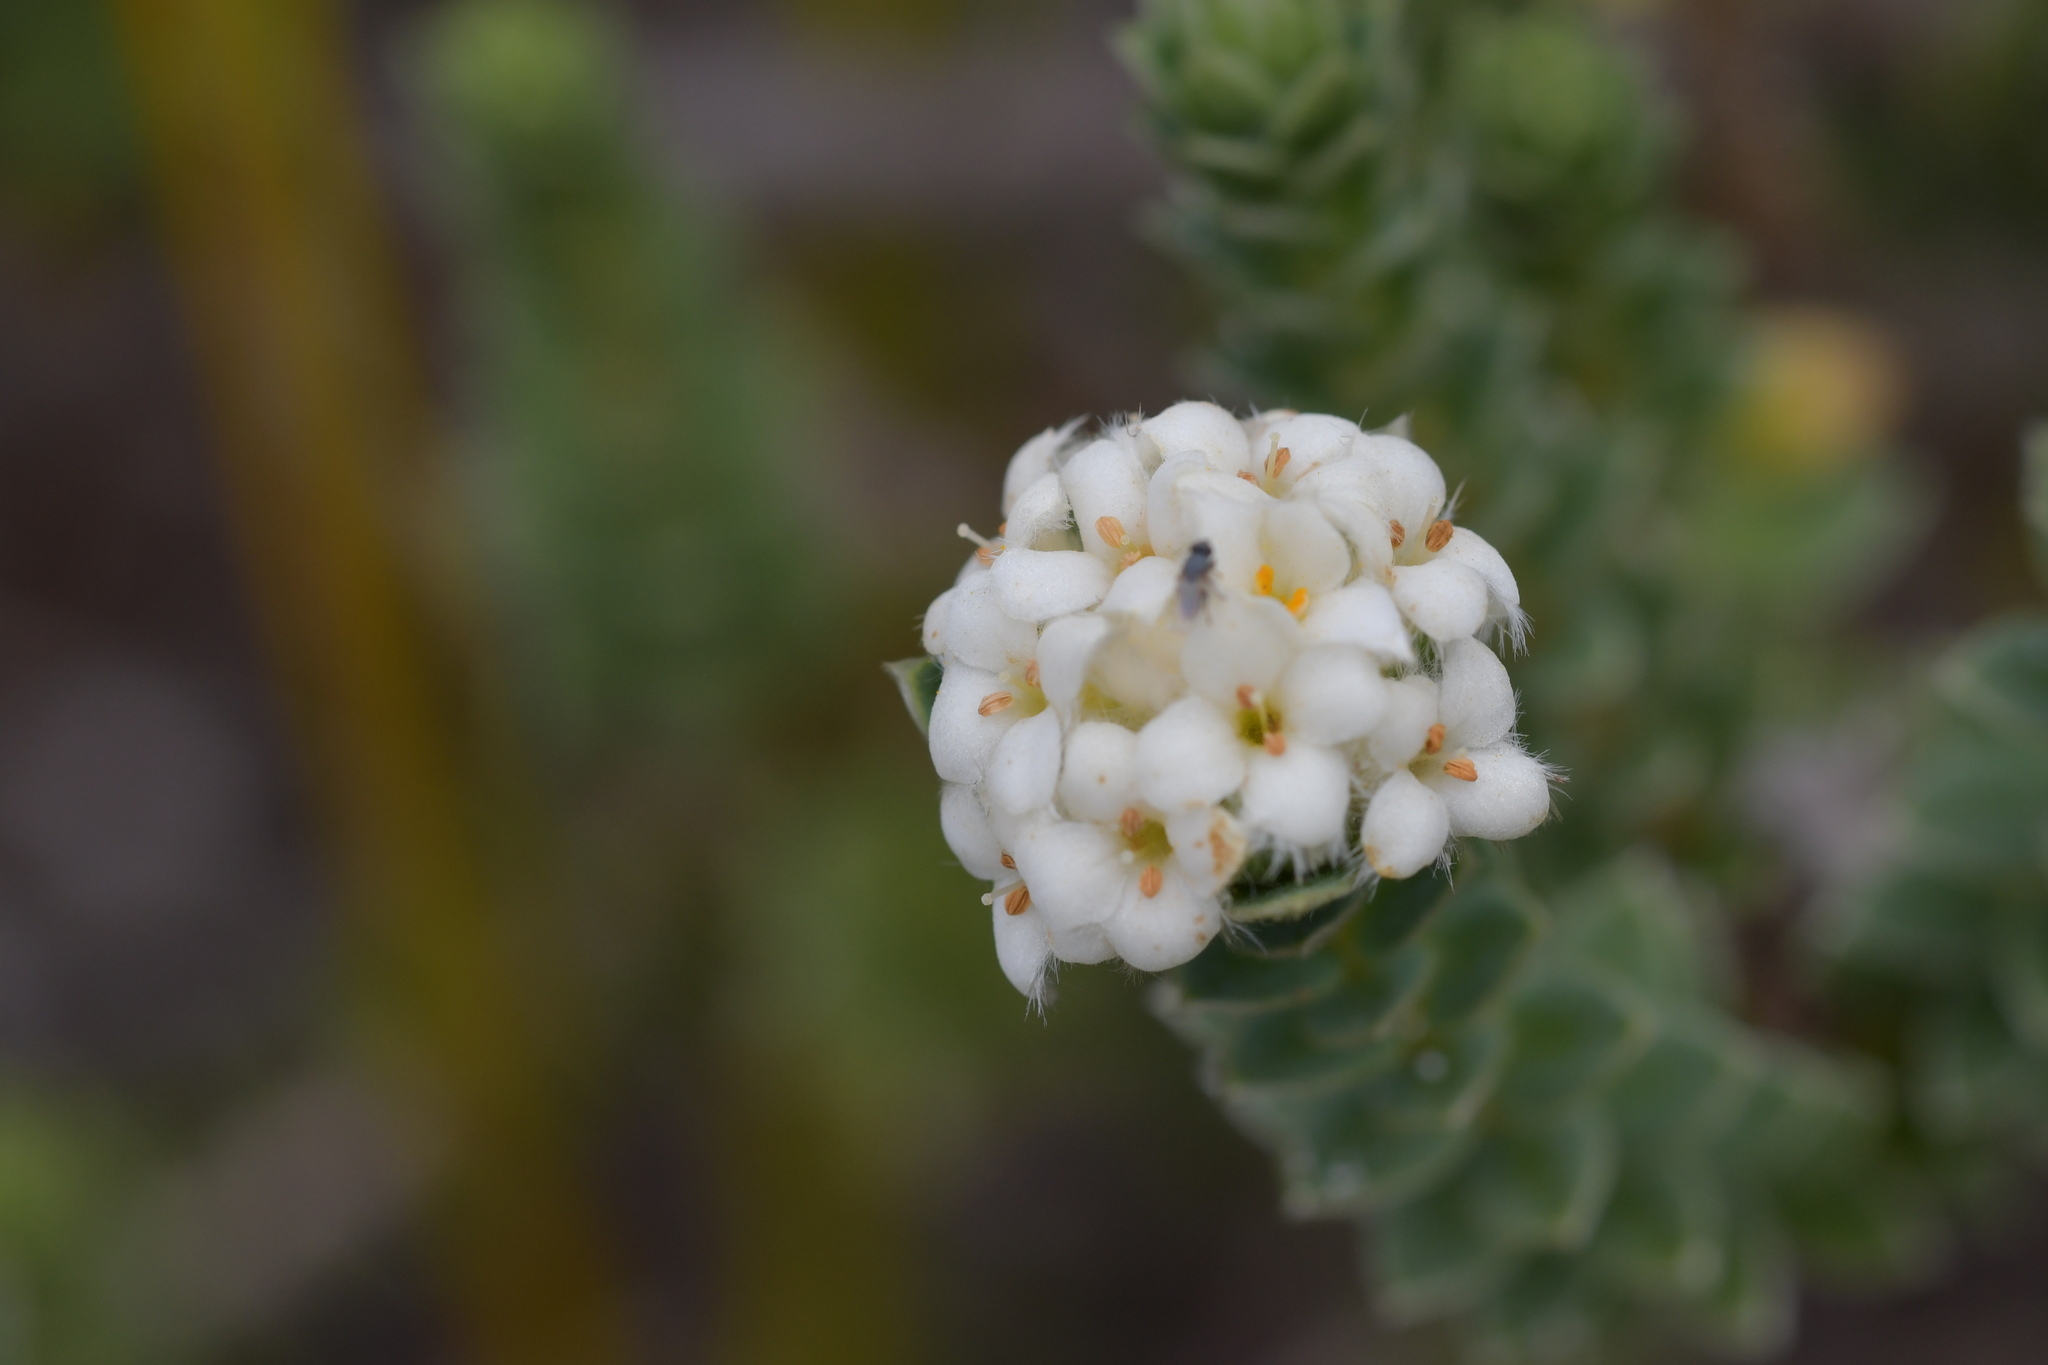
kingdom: Plantae
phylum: Tracheophyta
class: Magnoliopsida
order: Malvales
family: Thymelaeaceae
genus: Pimelea
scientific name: Pimelea villosa
